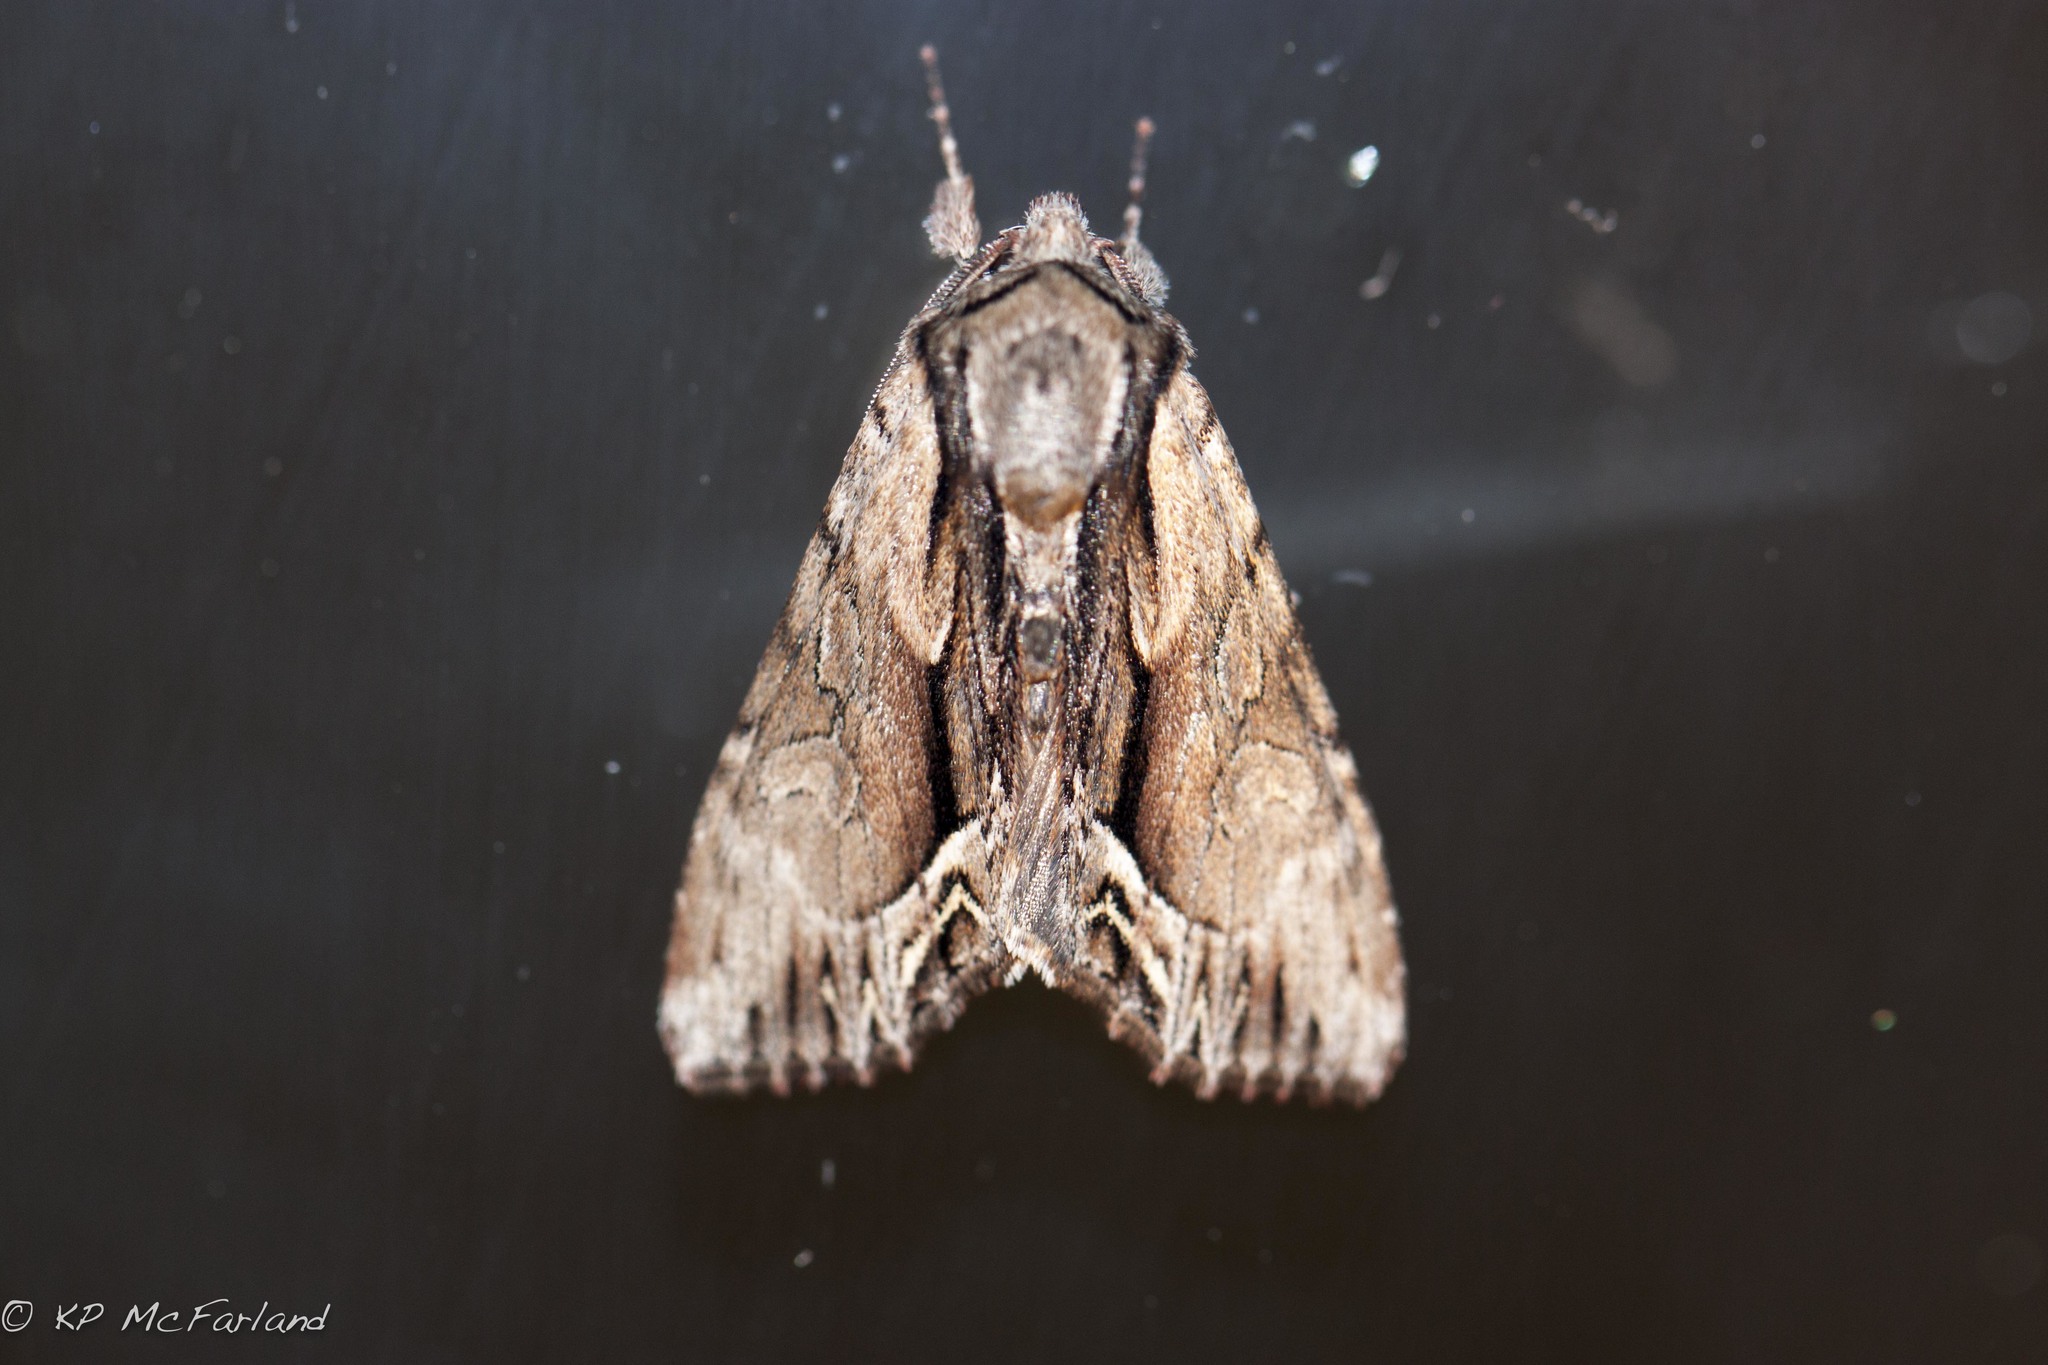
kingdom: Animalia
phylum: Arthropoda
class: Insecta
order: Lepidoptera
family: Noctuidae
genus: Hyppa
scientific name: Hyppa xylinoides
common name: Common hyppa moth
